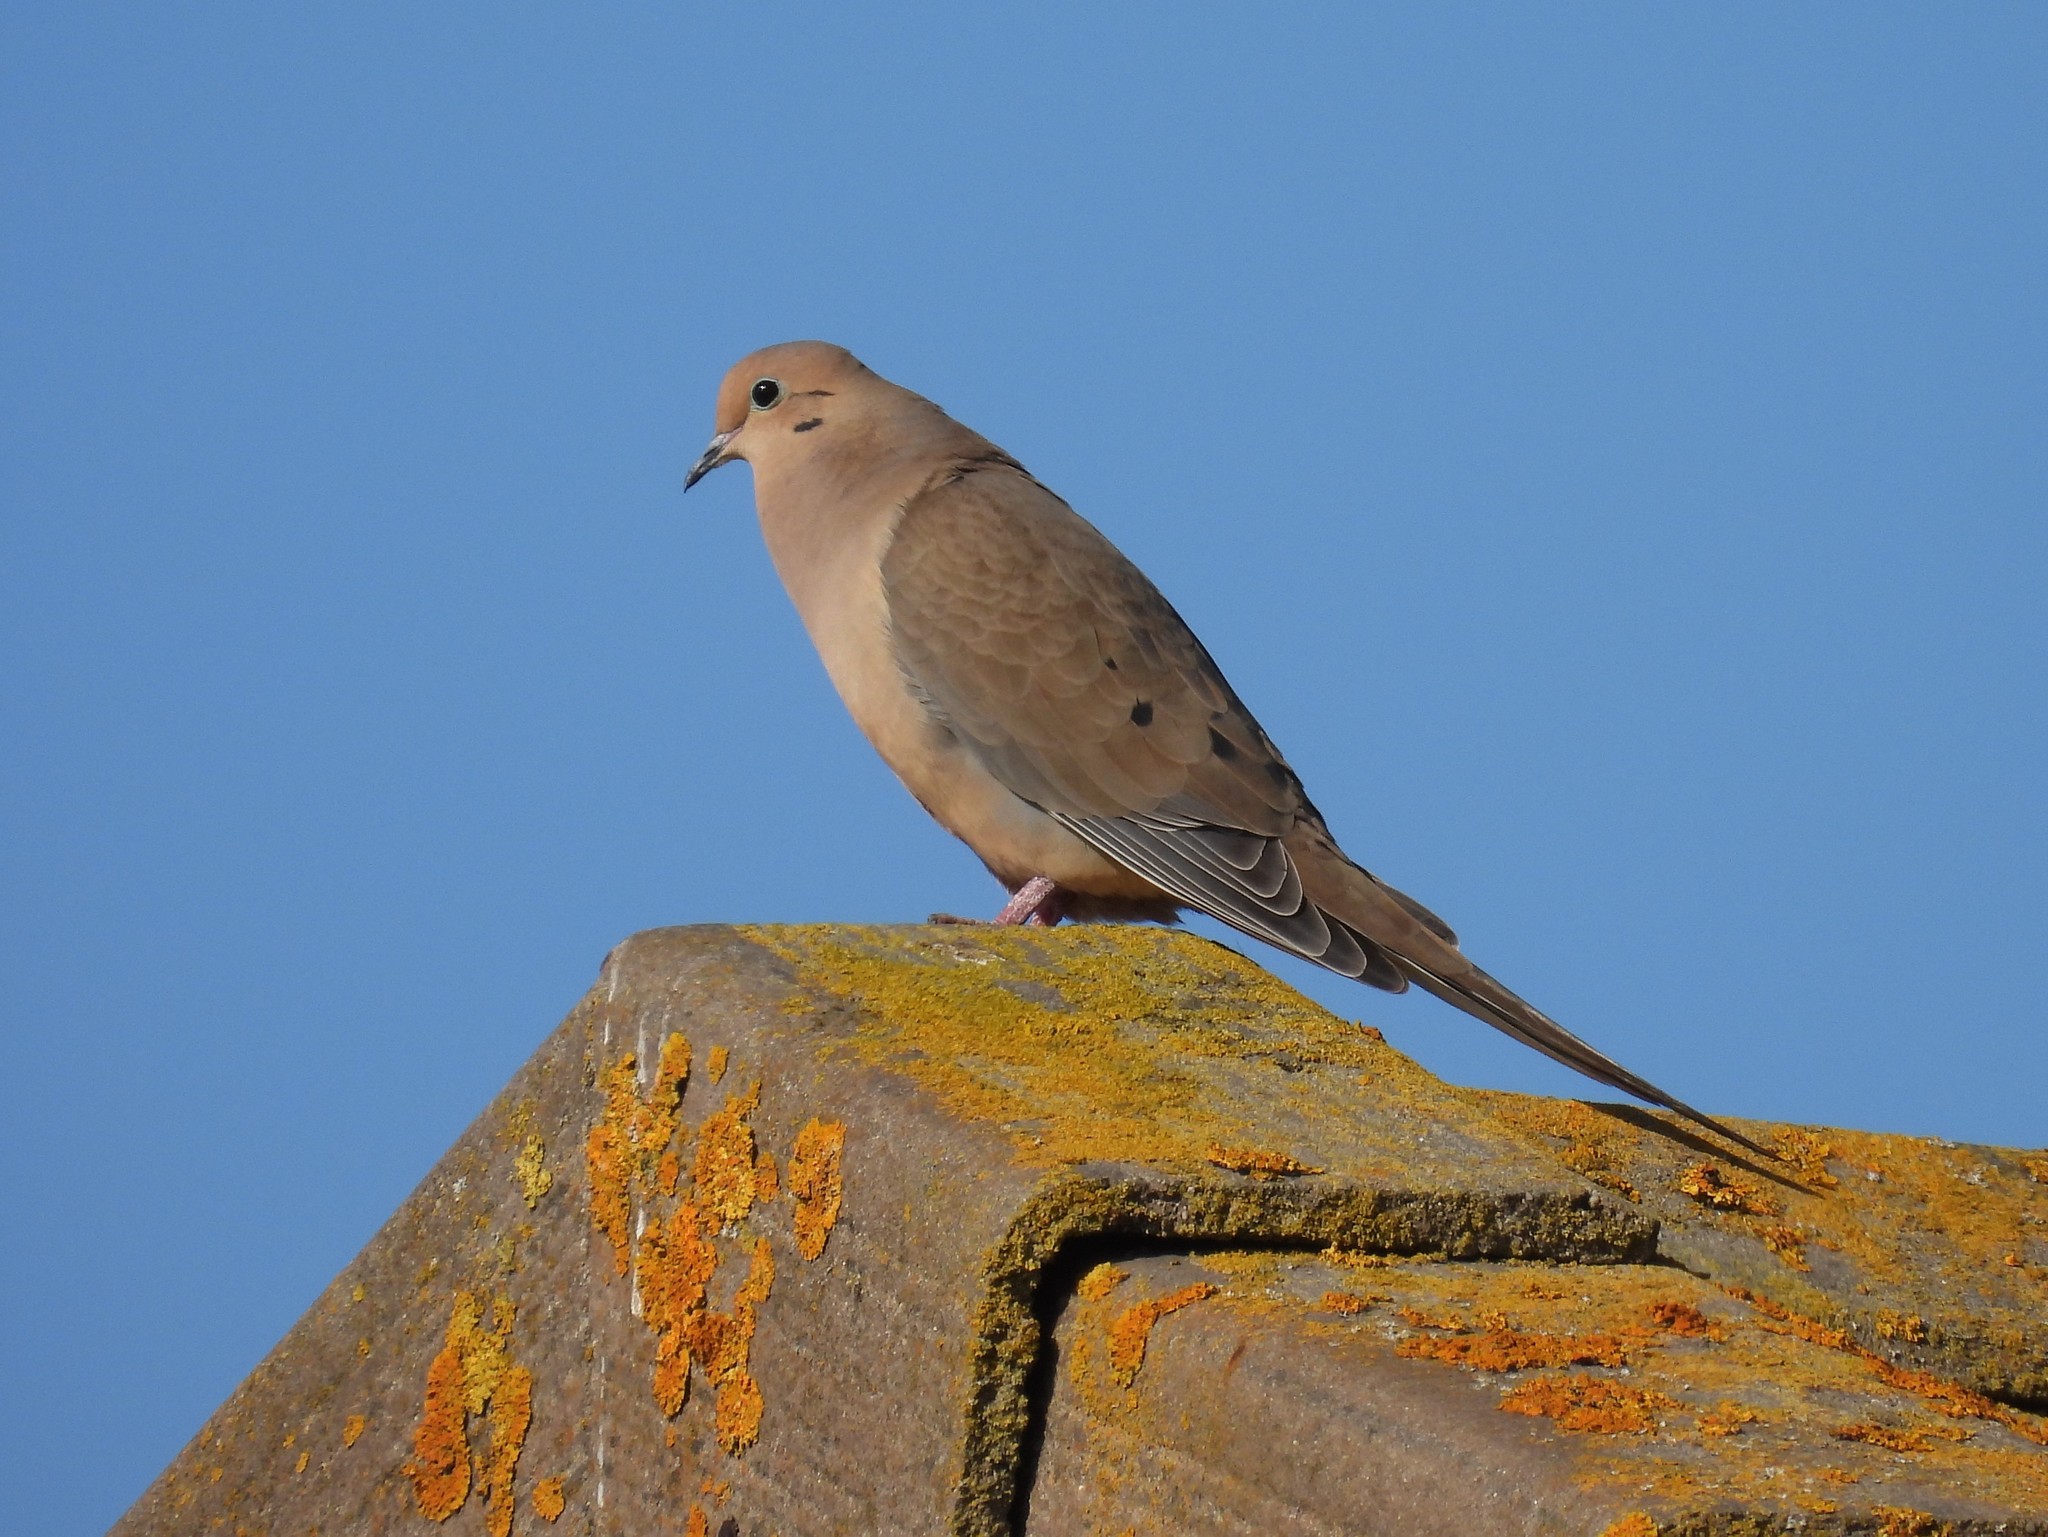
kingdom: Animalia
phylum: Chordata
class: Aves
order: Columbiformes
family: Columbidae
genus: Zenaida
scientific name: Zenaida macroura
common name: Mourning dove
